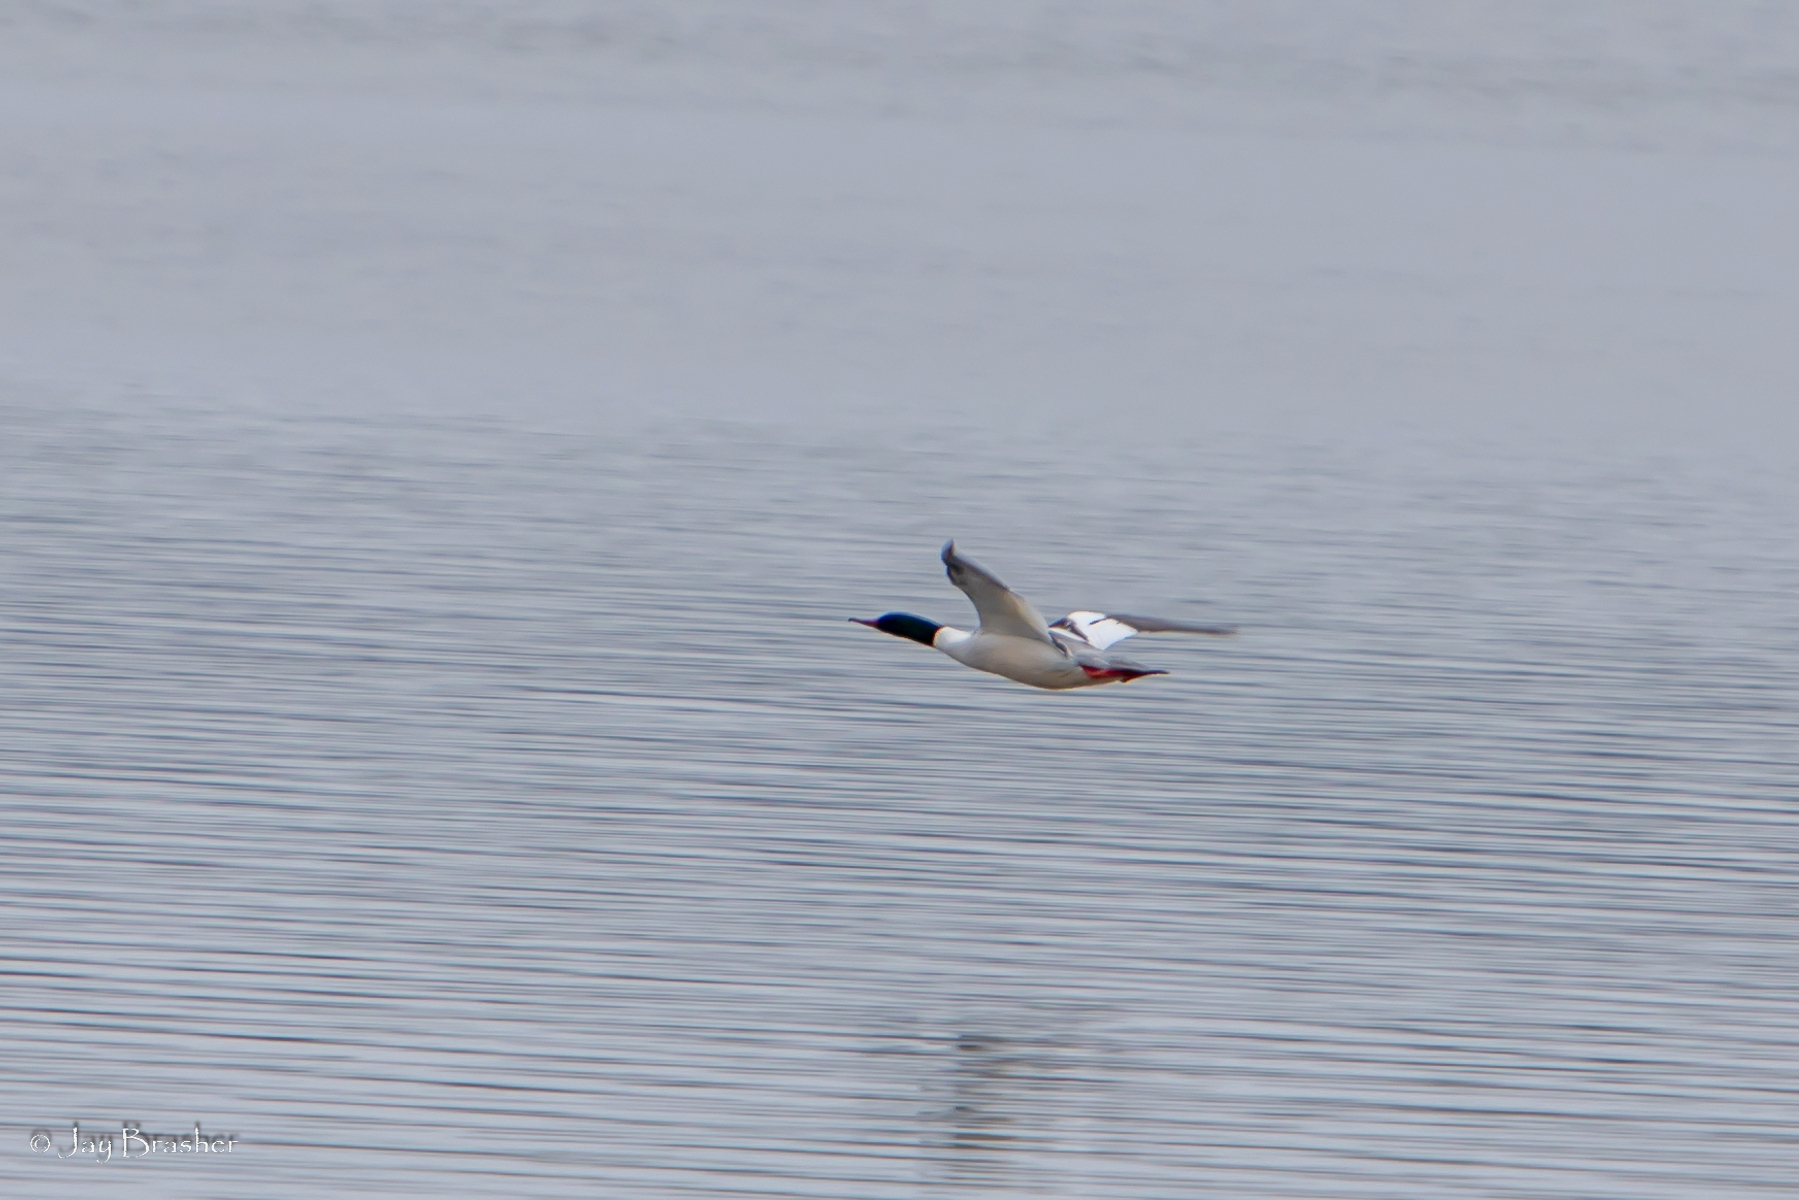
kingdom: Animalia
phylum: Chordata
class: Aves
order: Anseriformes
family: Anatidae
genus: Mergus
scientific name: Mergus merganser
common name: Common merganser
